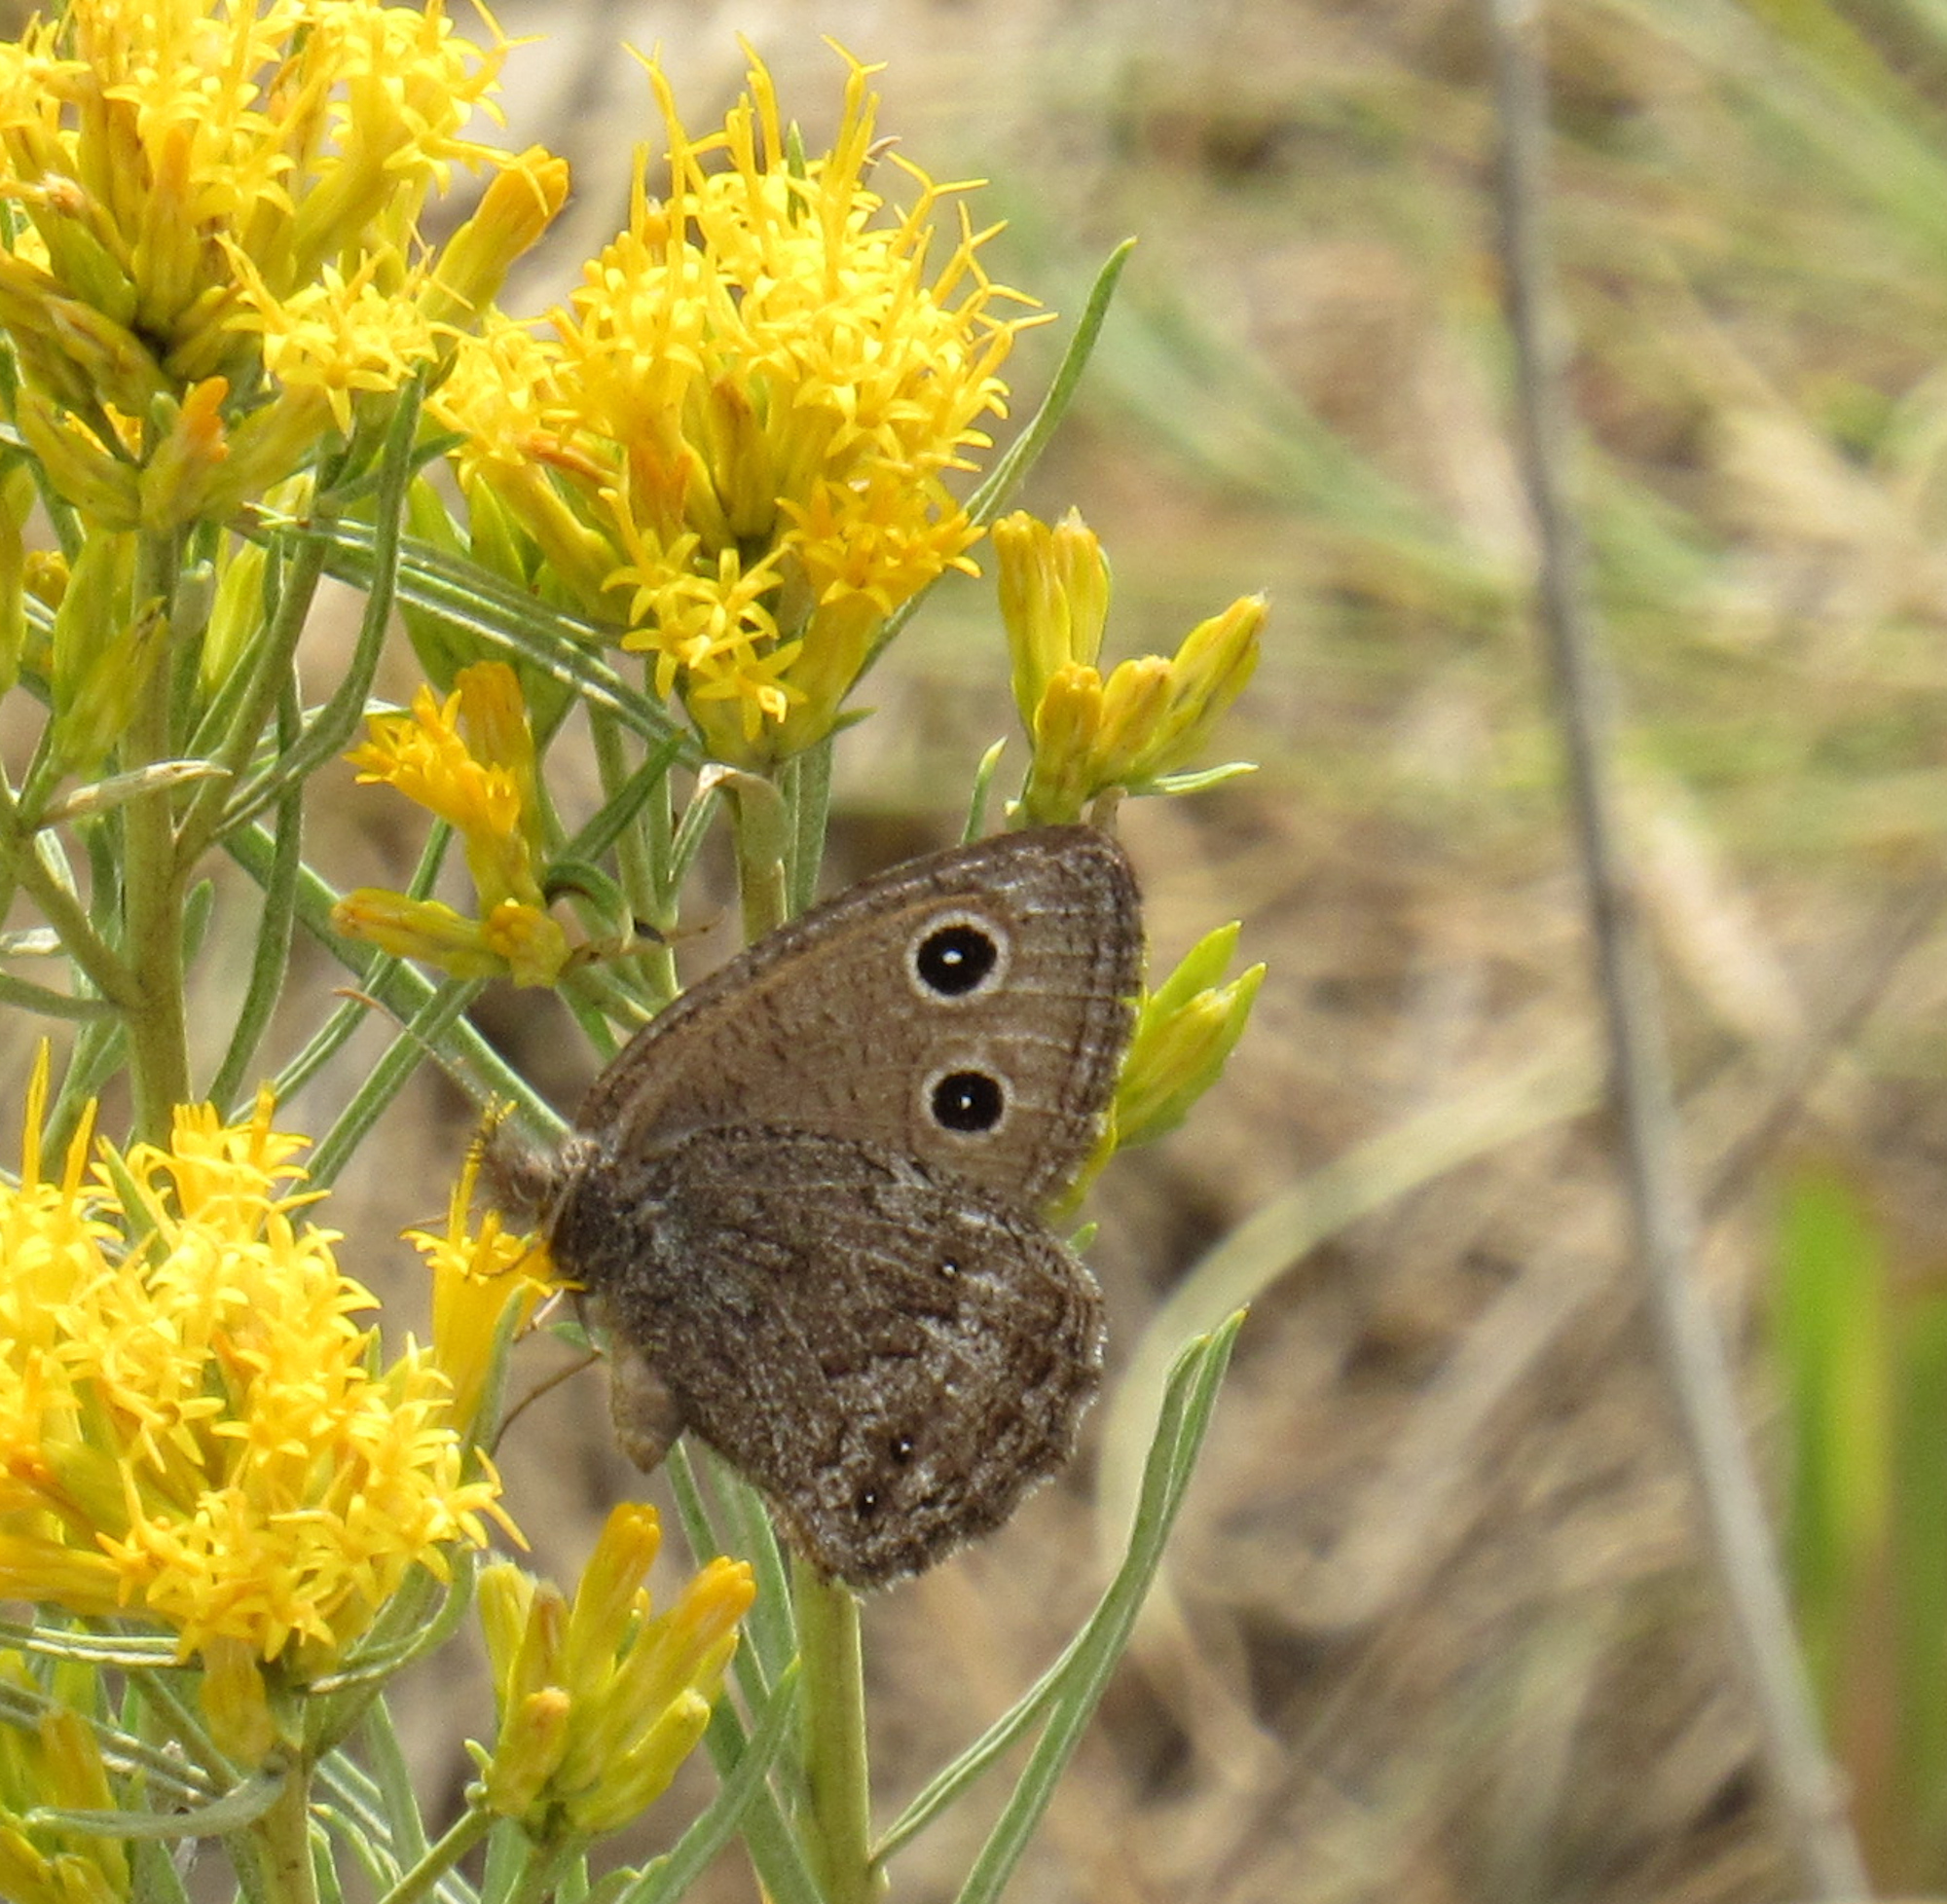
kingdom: Animalia
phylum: Arthropoda
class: Insecta
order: Lepidoptera
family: Nymphalidae
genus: Cercyonis
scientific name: Cercyonis oetus
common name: Small wood-nymph
